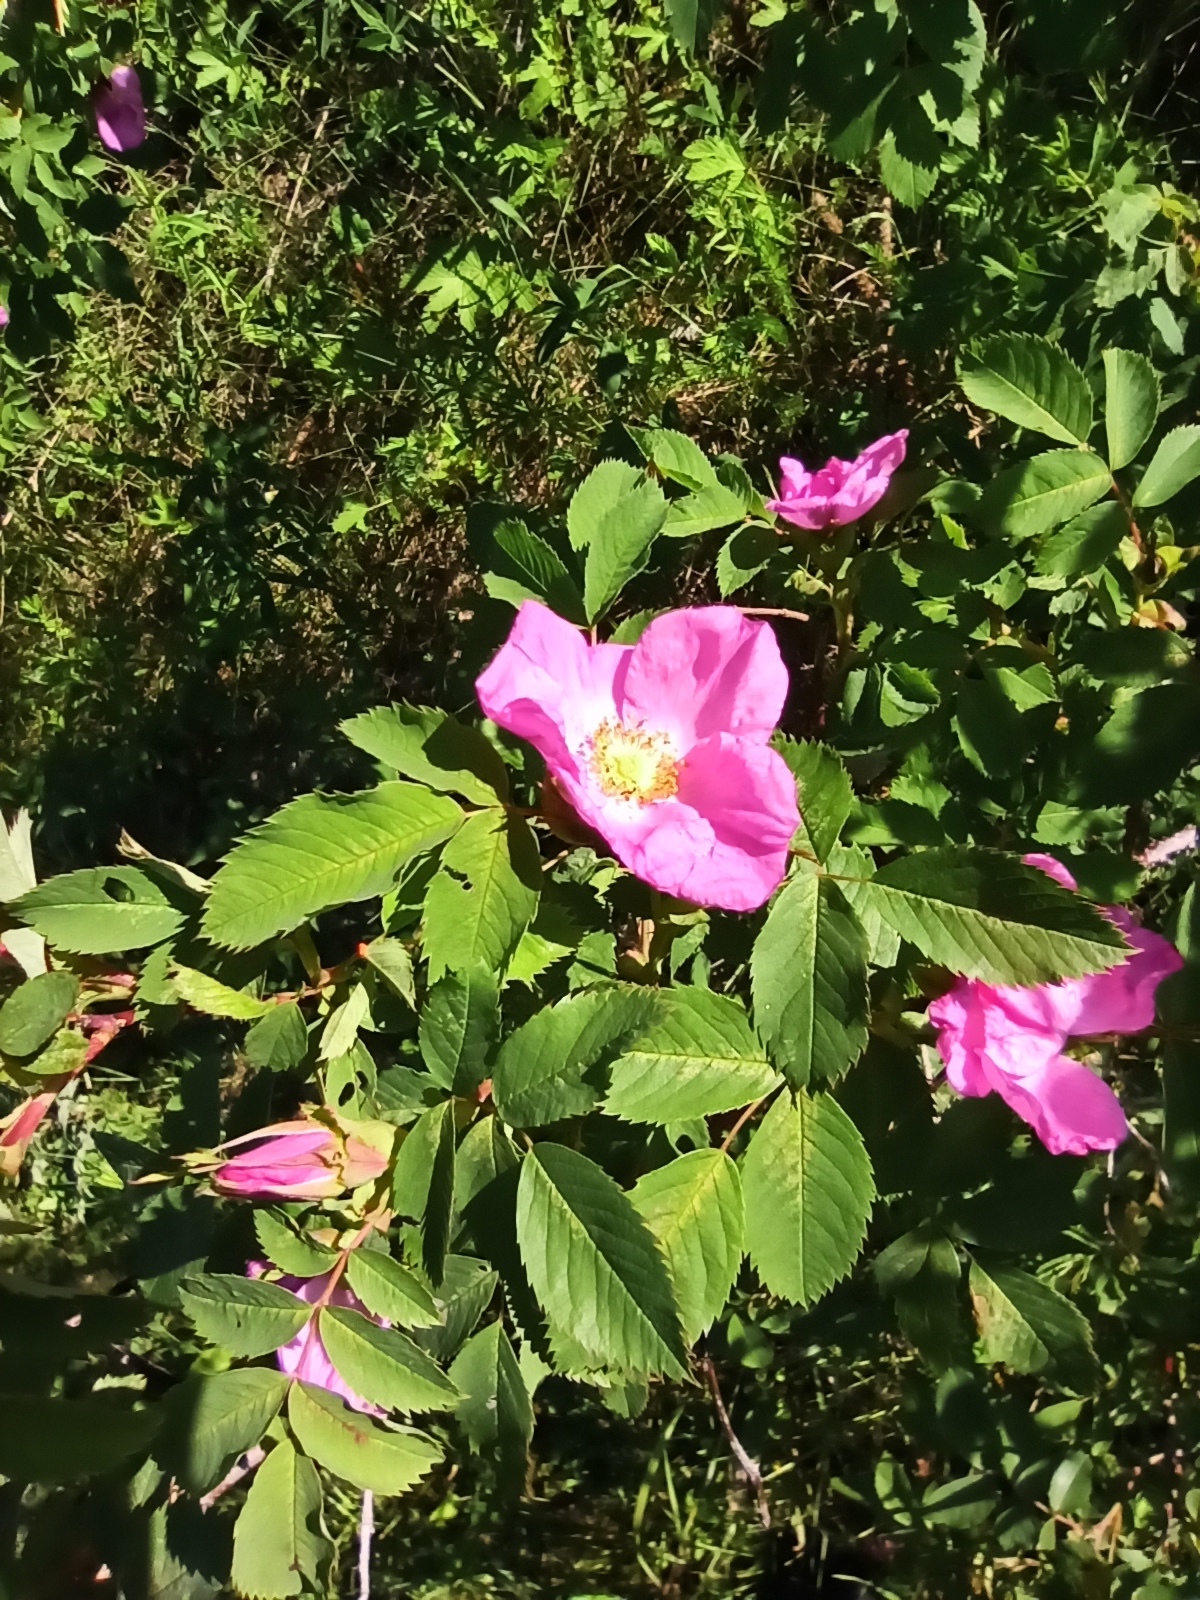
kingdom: Plantae
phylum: Tracheophyta
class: Magnoliopsida
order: Rosales
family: Rosaceae
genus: Rosa
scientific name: Rosa majalis
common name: Cinnamon rose
